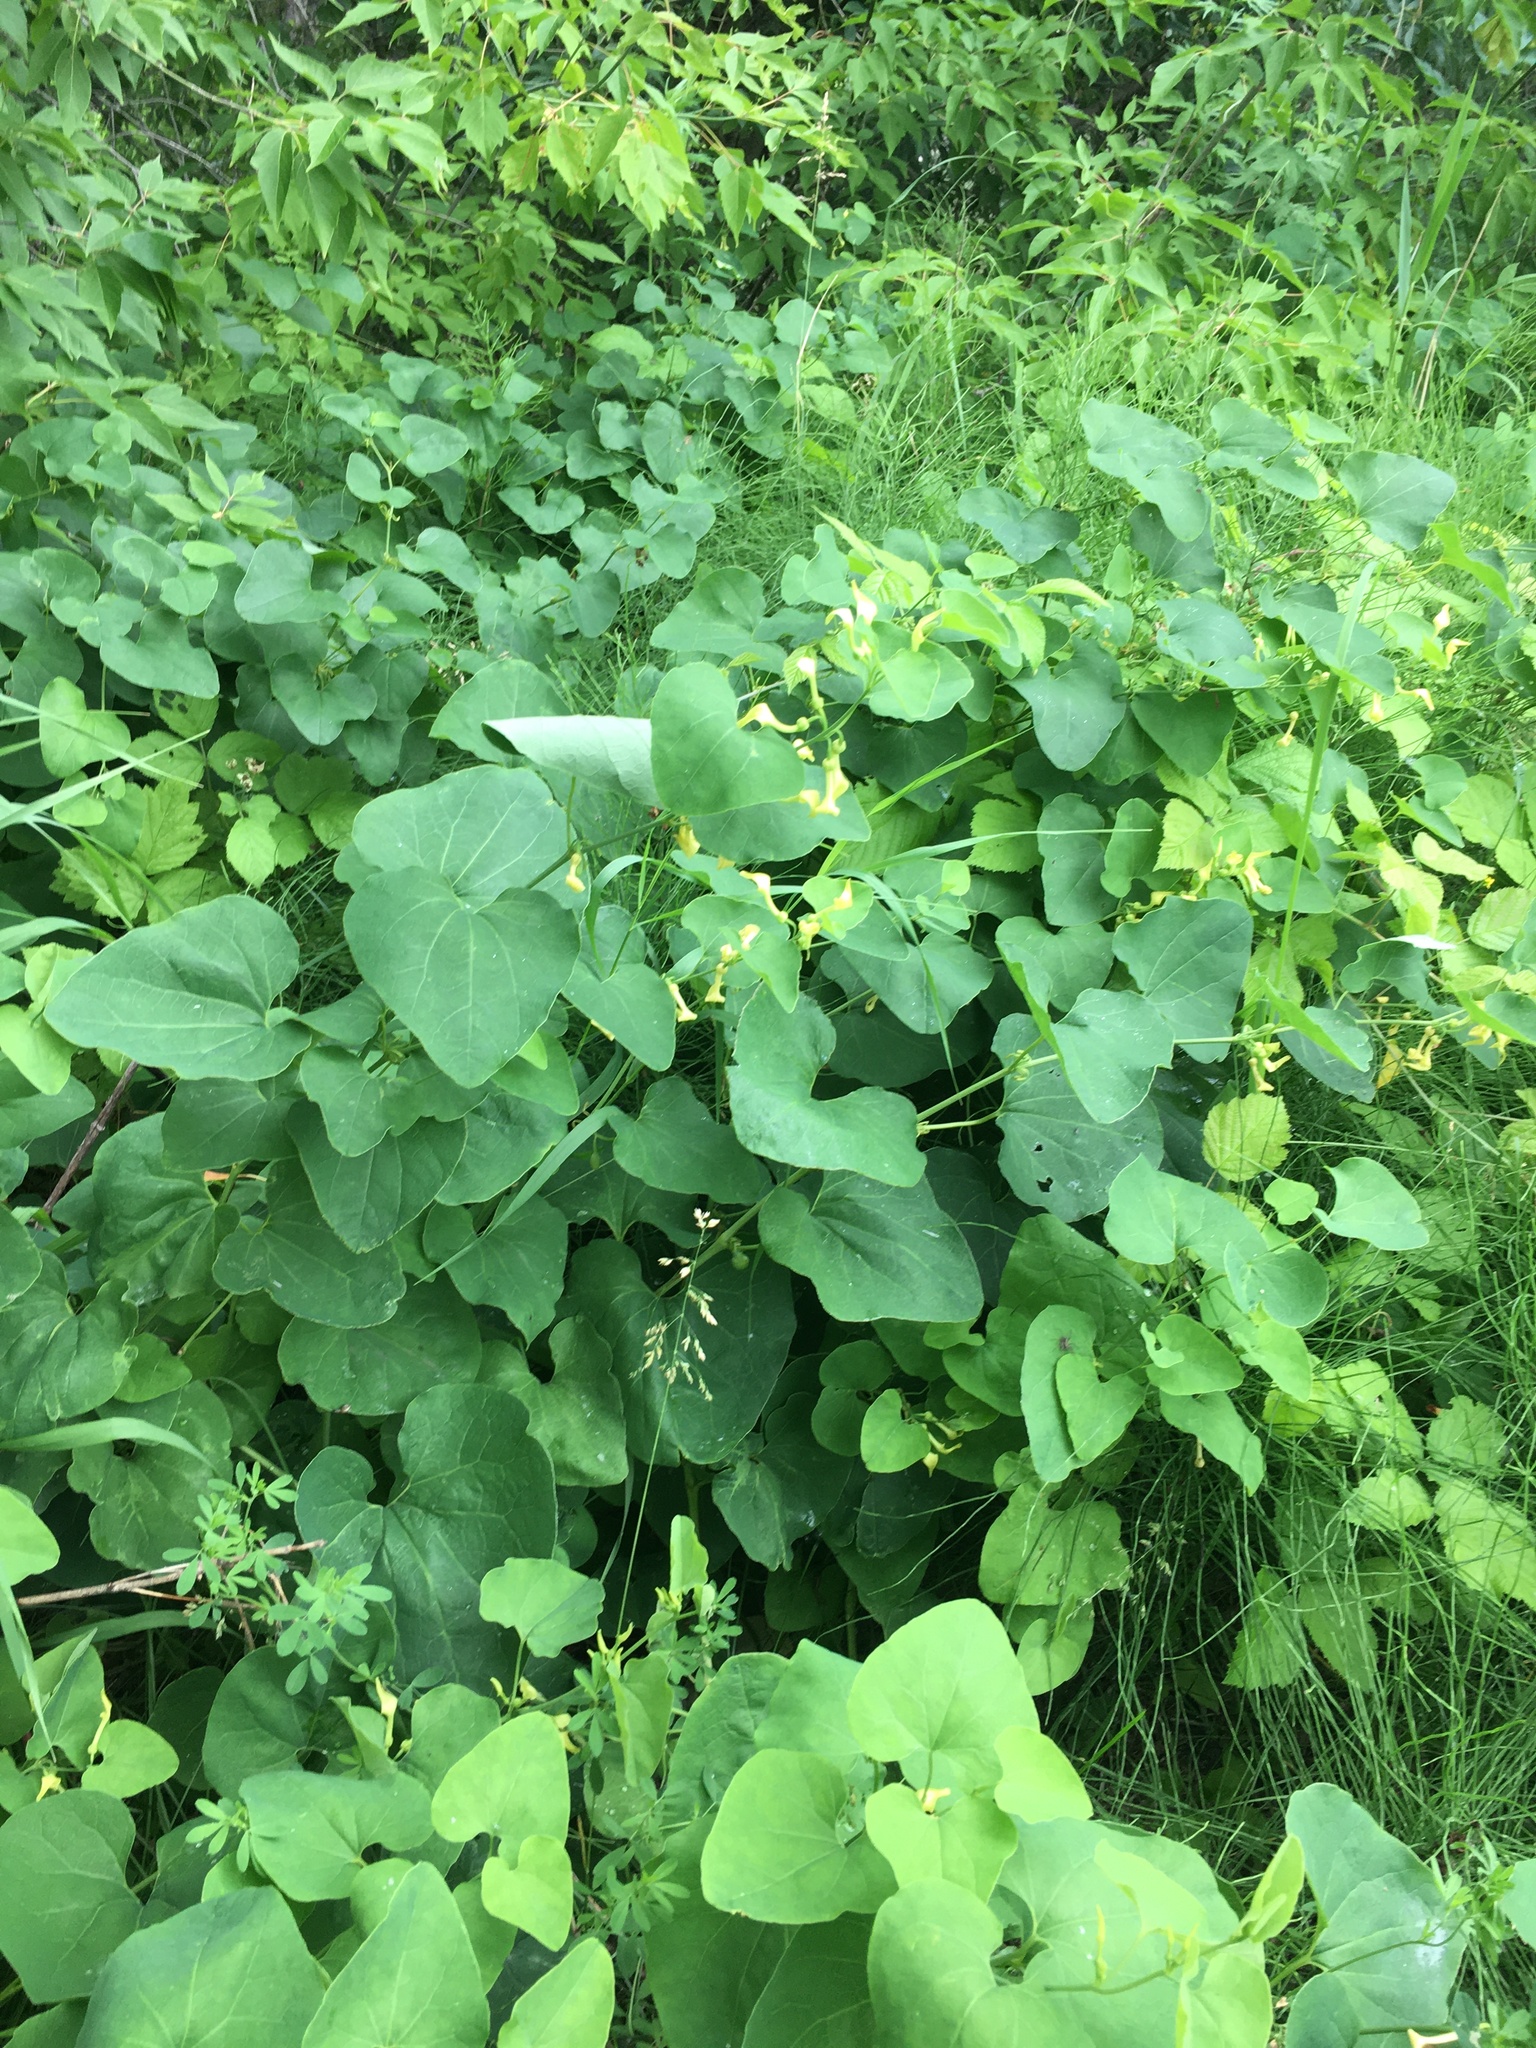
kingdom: Plantae
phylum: Tracheophyta
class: Magnoliopsida
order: Piperales
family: Aristolochiaceae
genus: Aristolochia
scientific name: Aristolochia clematitis
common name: Birthwort
